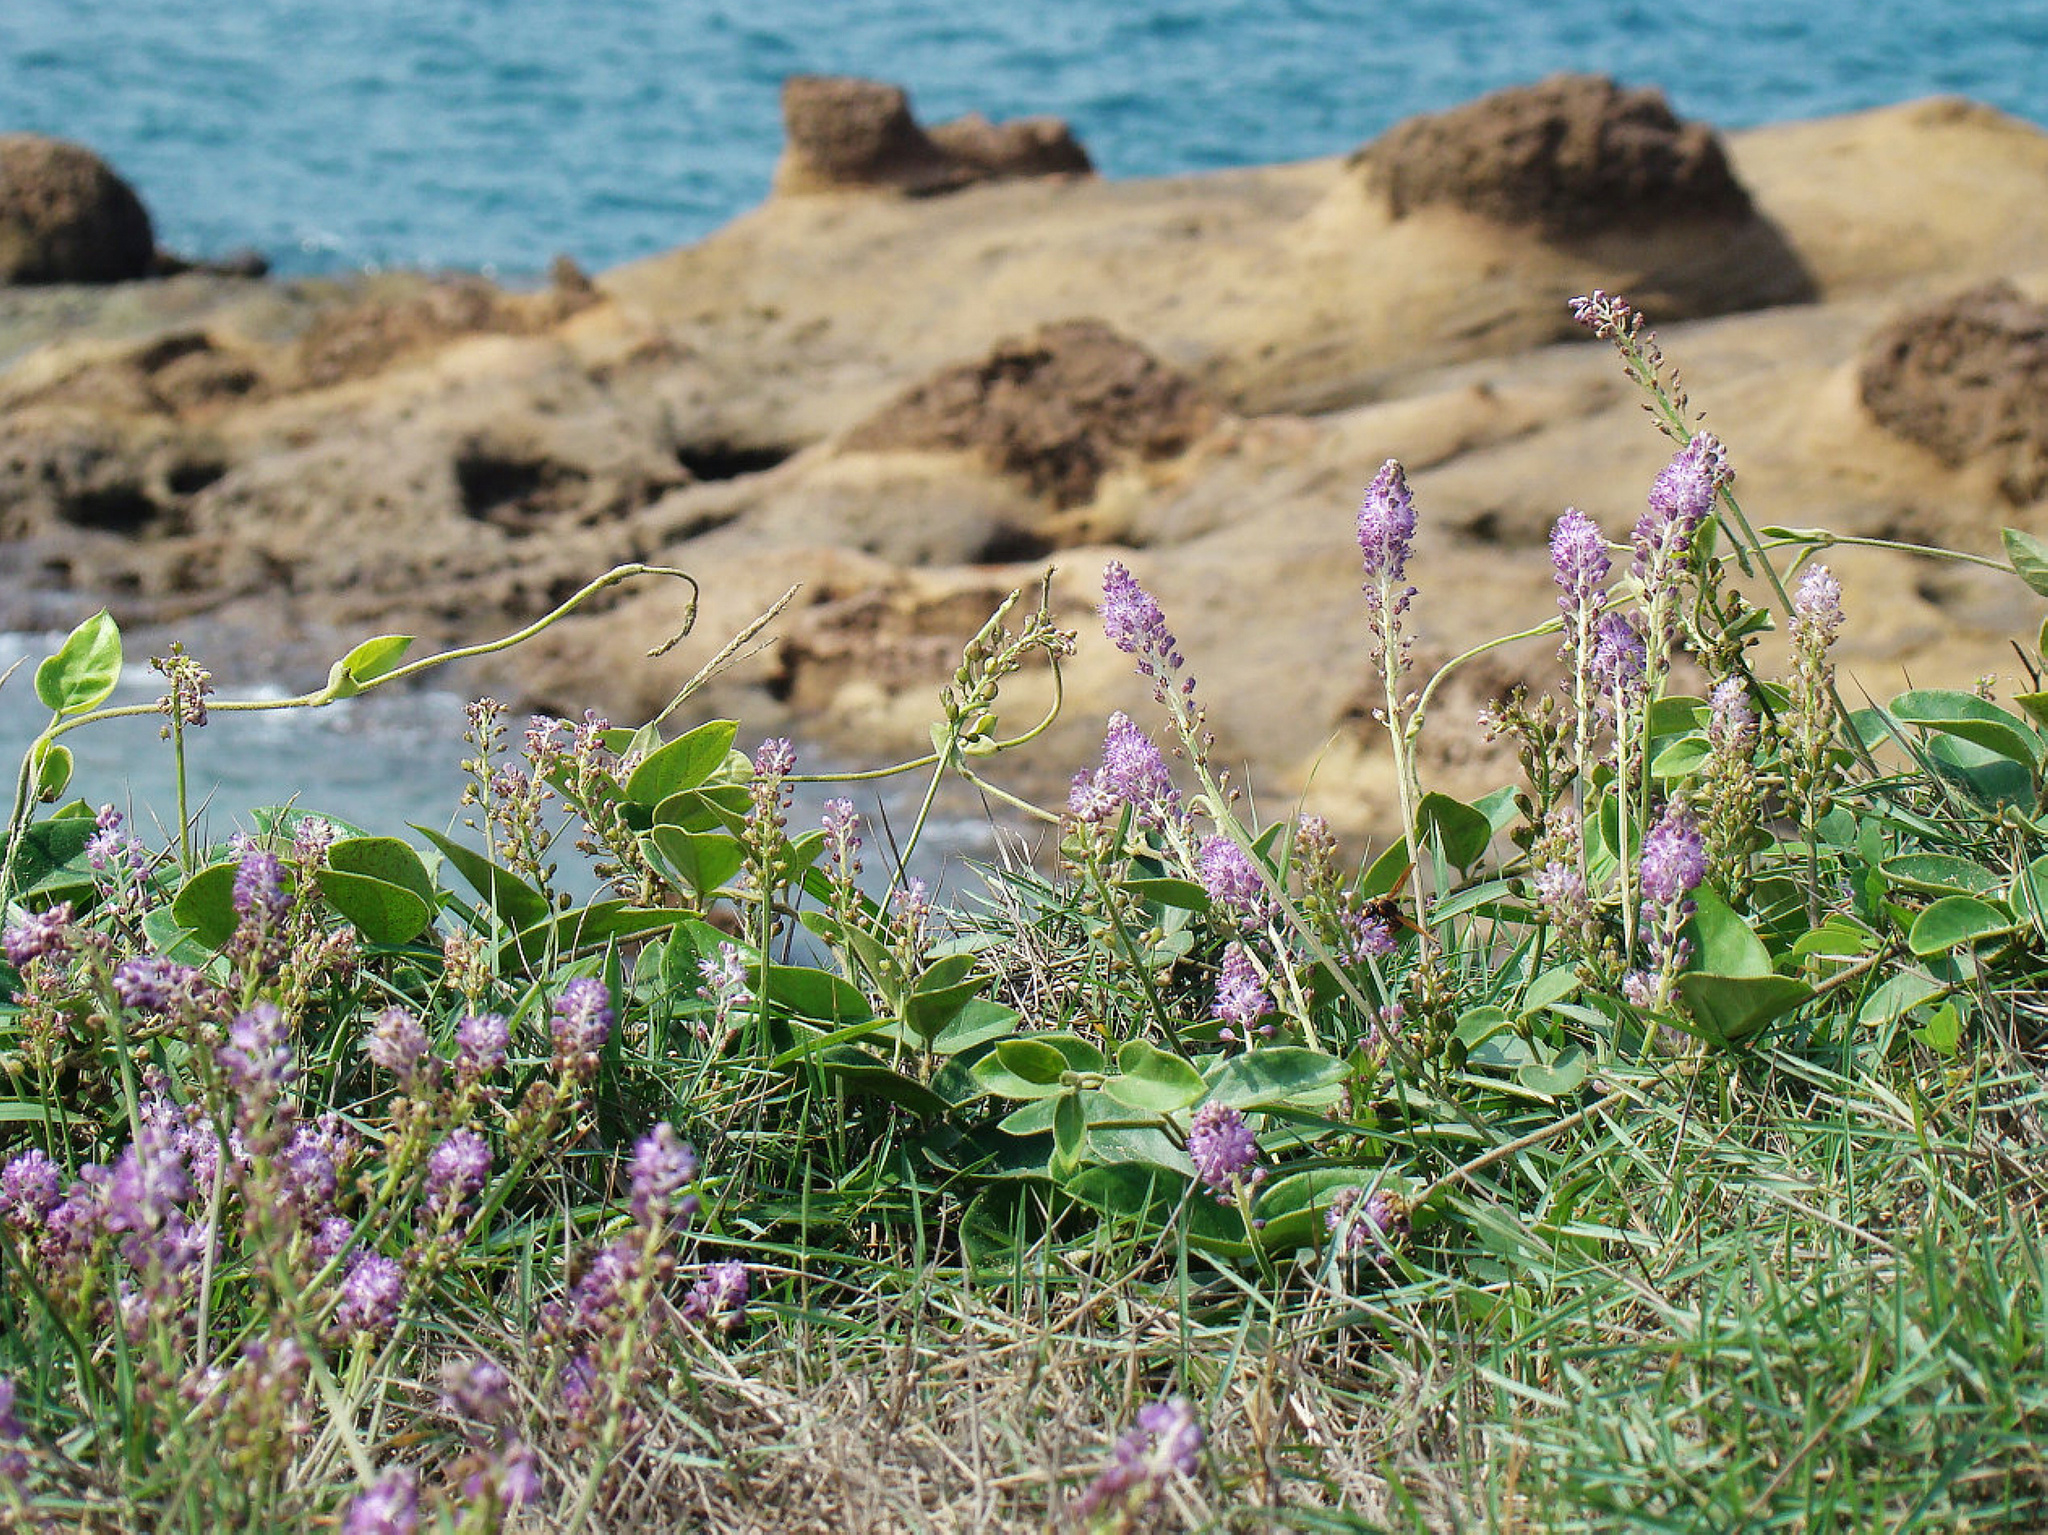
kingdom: Plantae
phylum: Tracheophyta
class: Liliopsida
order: Asparagales
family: Asparagaceae
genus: Barnardia
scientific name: Barnardia japonica
